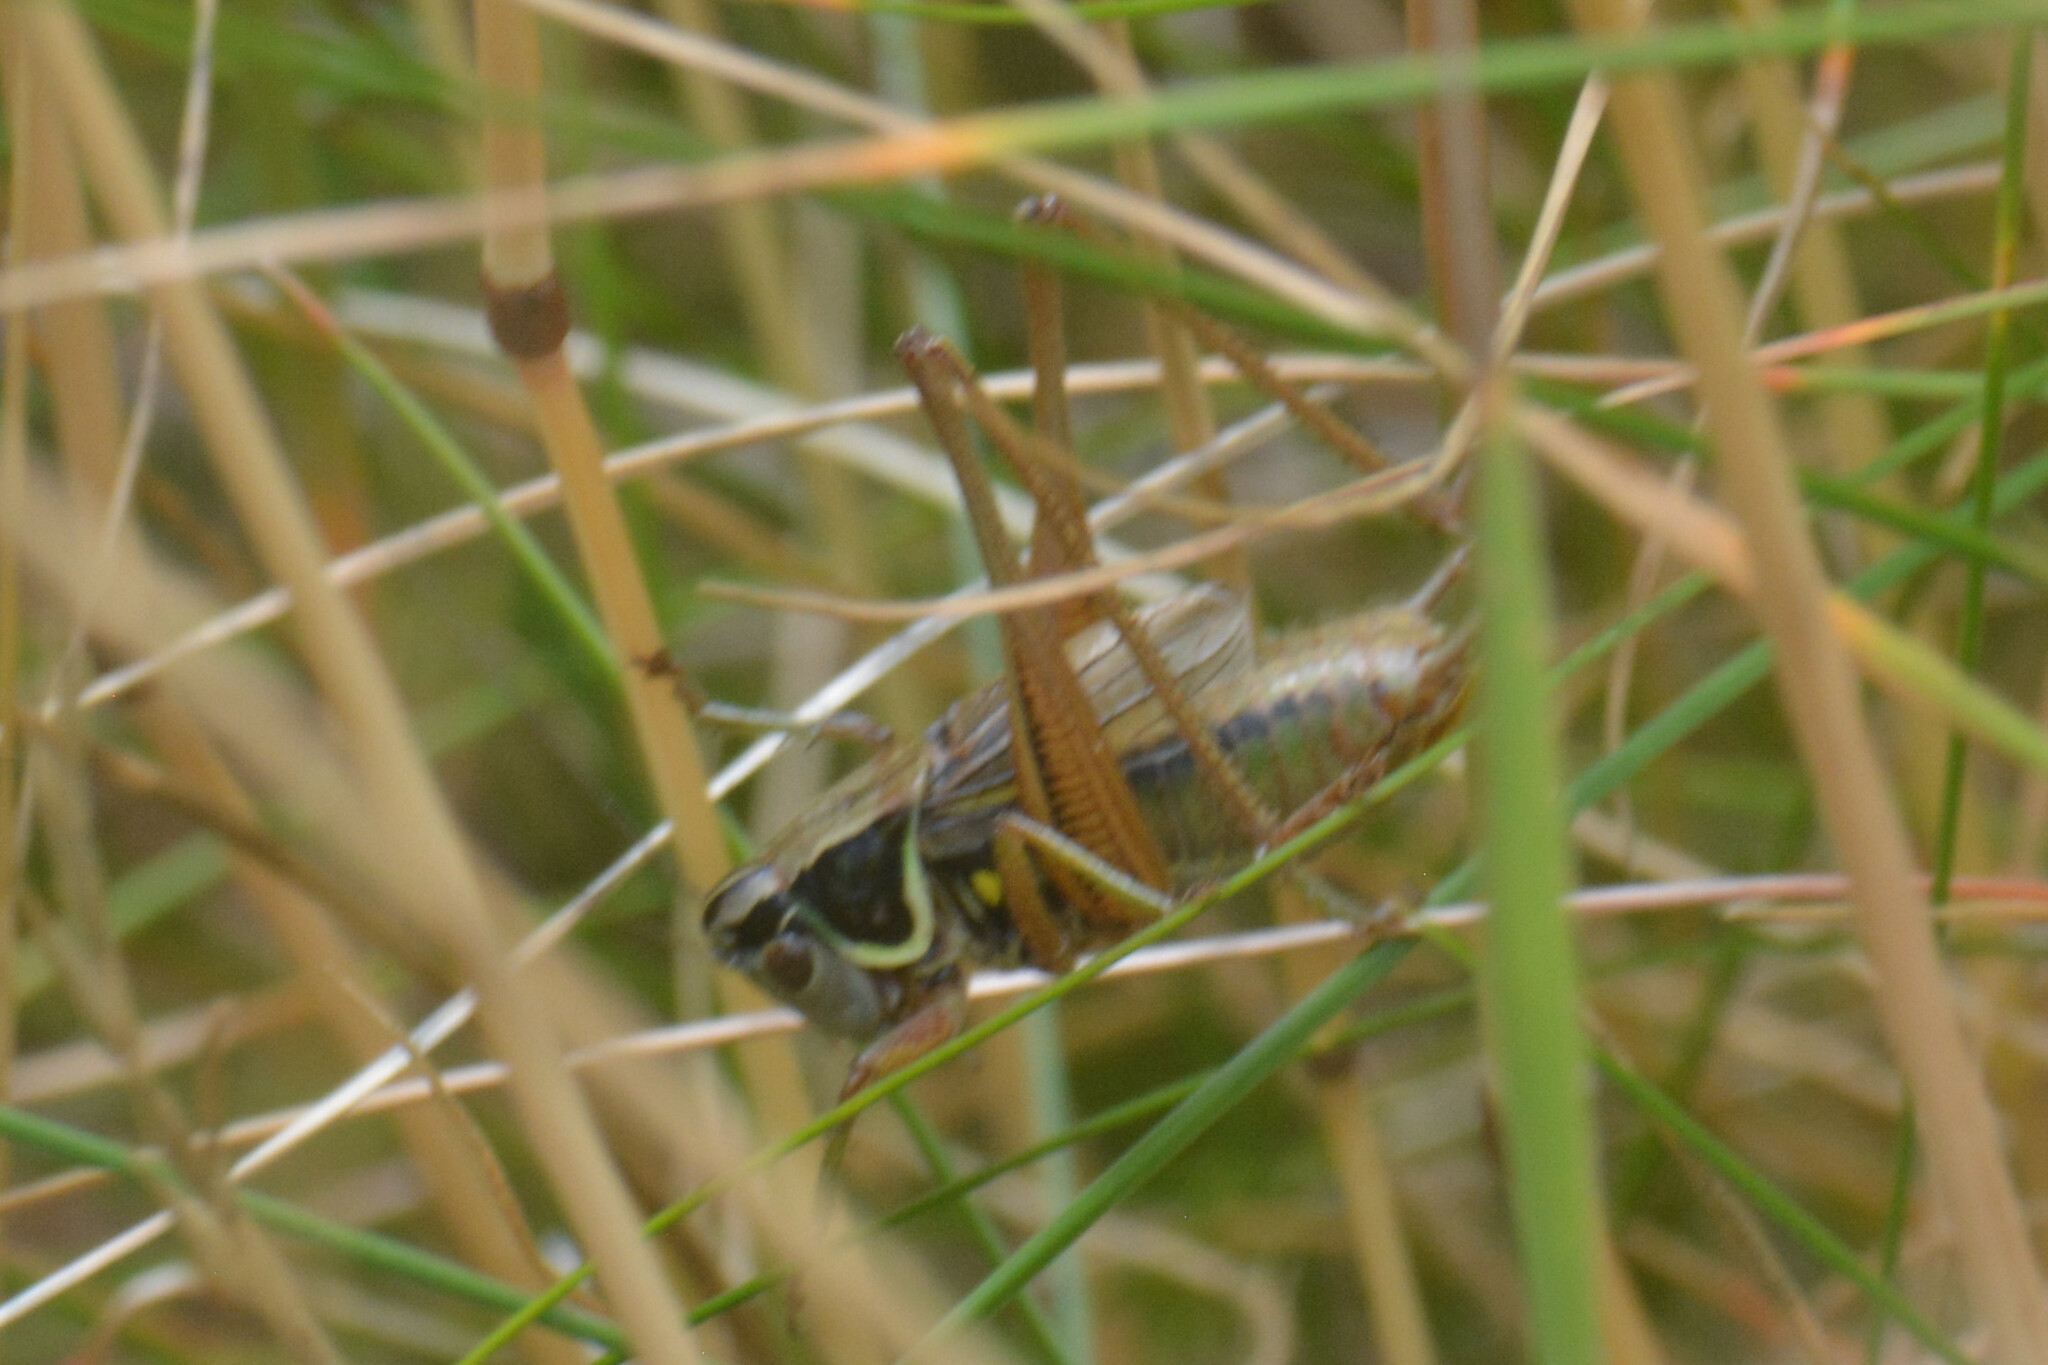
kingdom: Animalia
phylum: Arthropoda
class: Insecta
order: Orthoptera
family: Tettigoniidae
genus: Roeseliana
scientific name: Roeseliana roeselii
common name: Roesel's bush cricket
